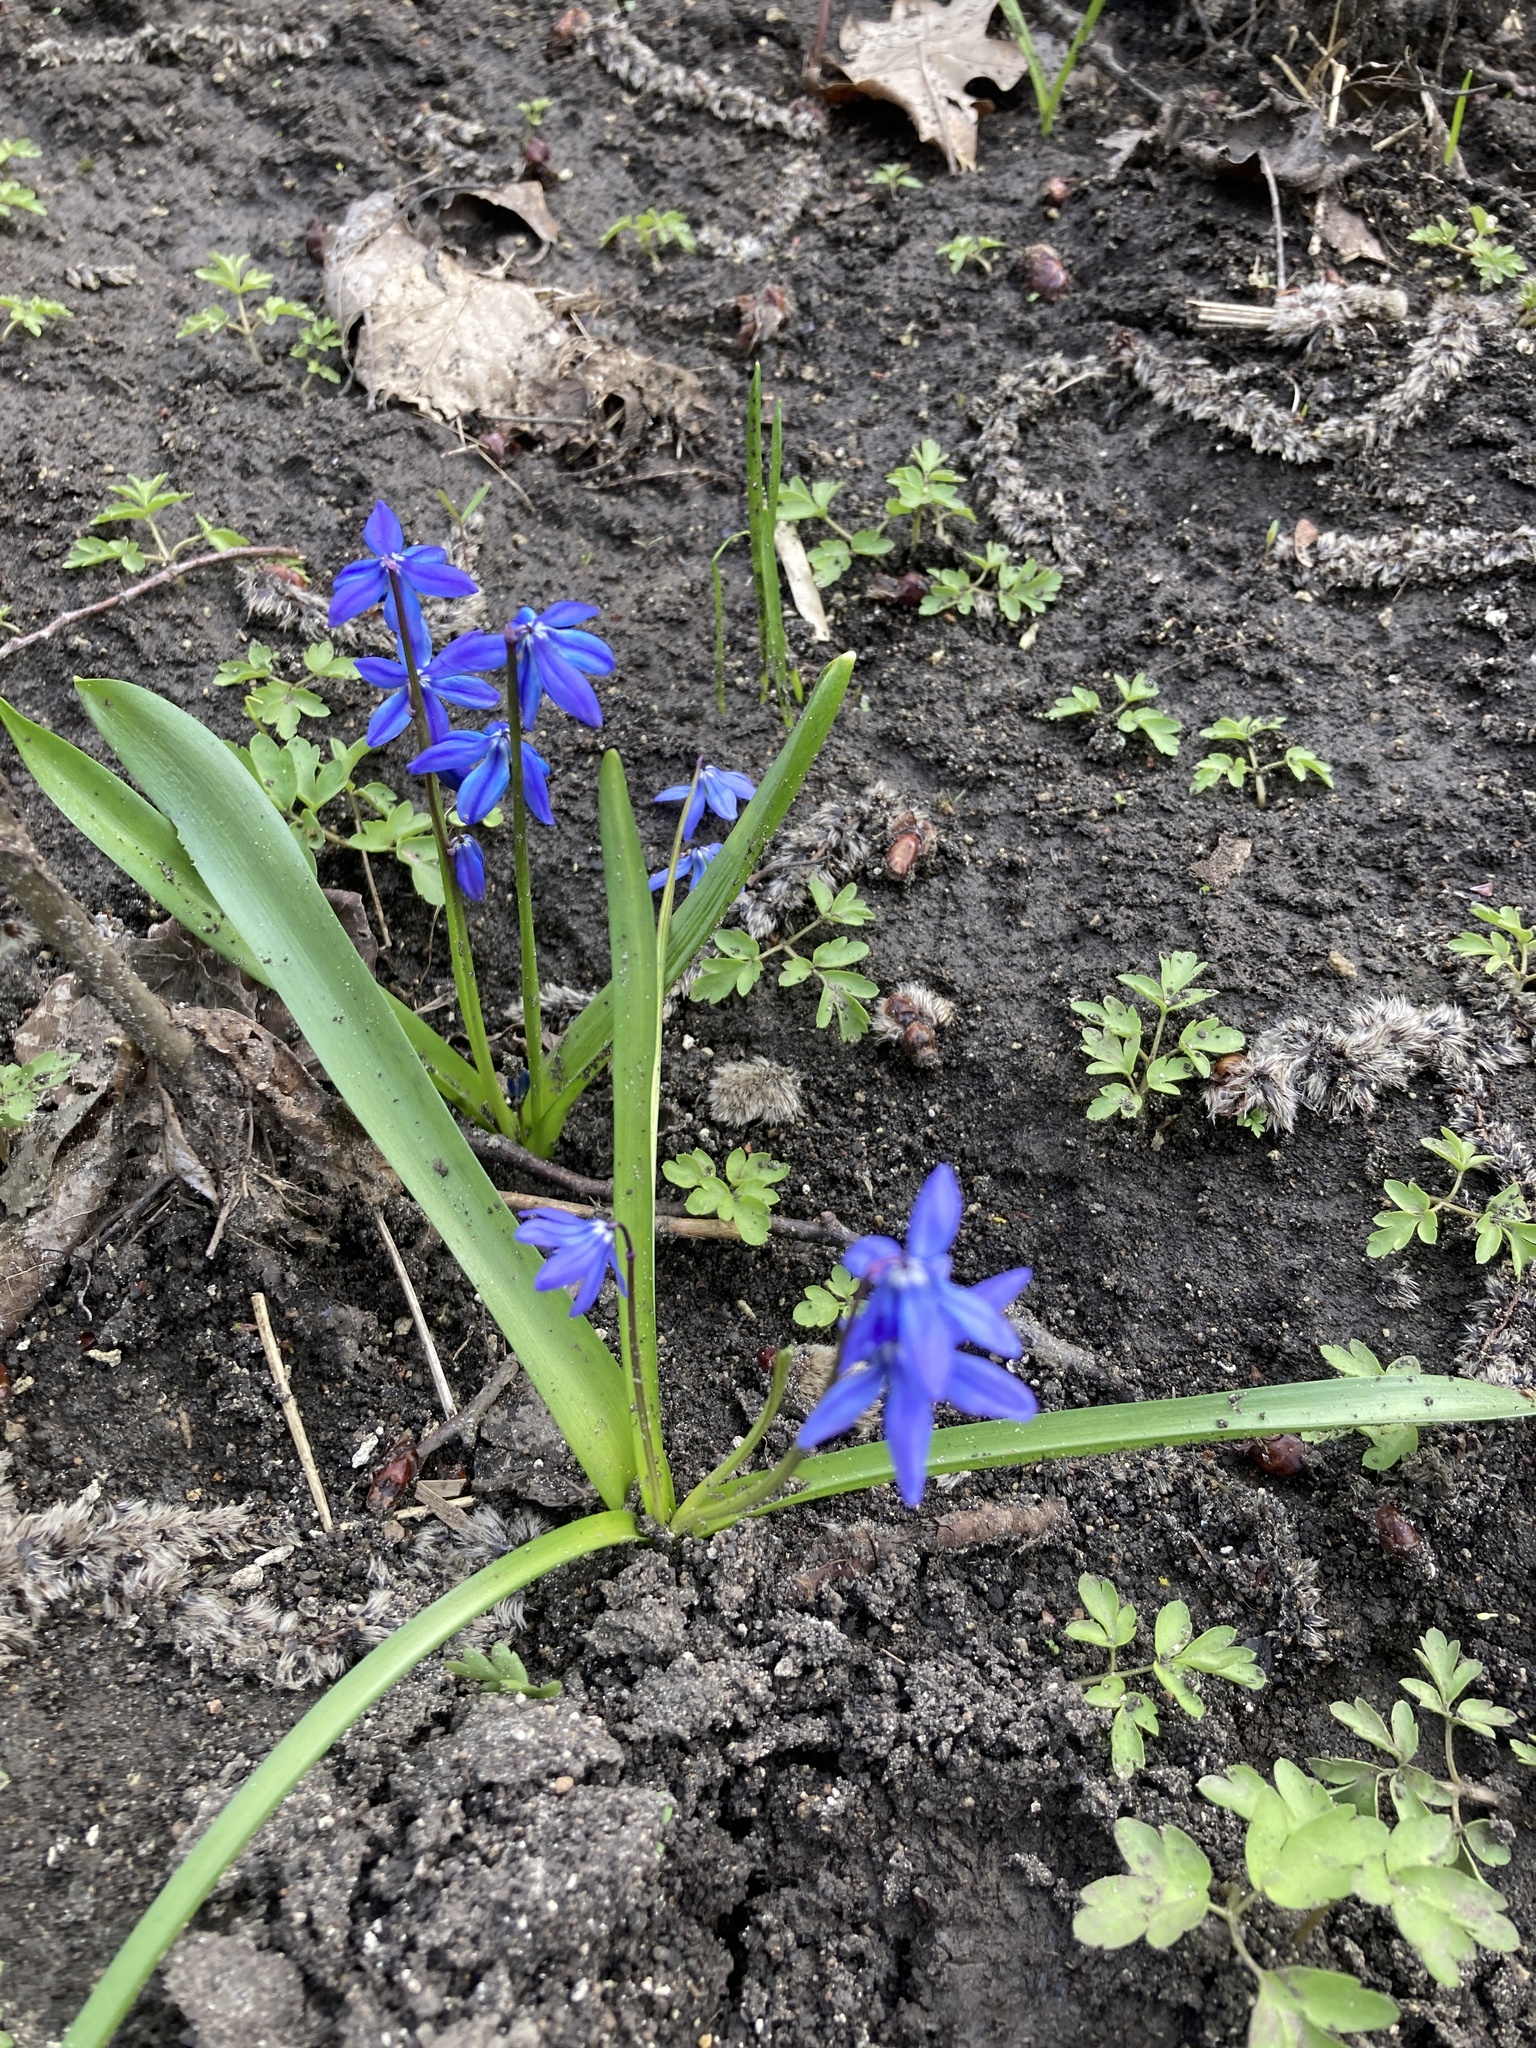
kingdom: Plantae
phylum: Tracheophyta
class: Liliopsida
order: Asparagales
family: Asparagaceae
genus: Scilla
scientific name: Scilla siberica
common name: Siberian squill
